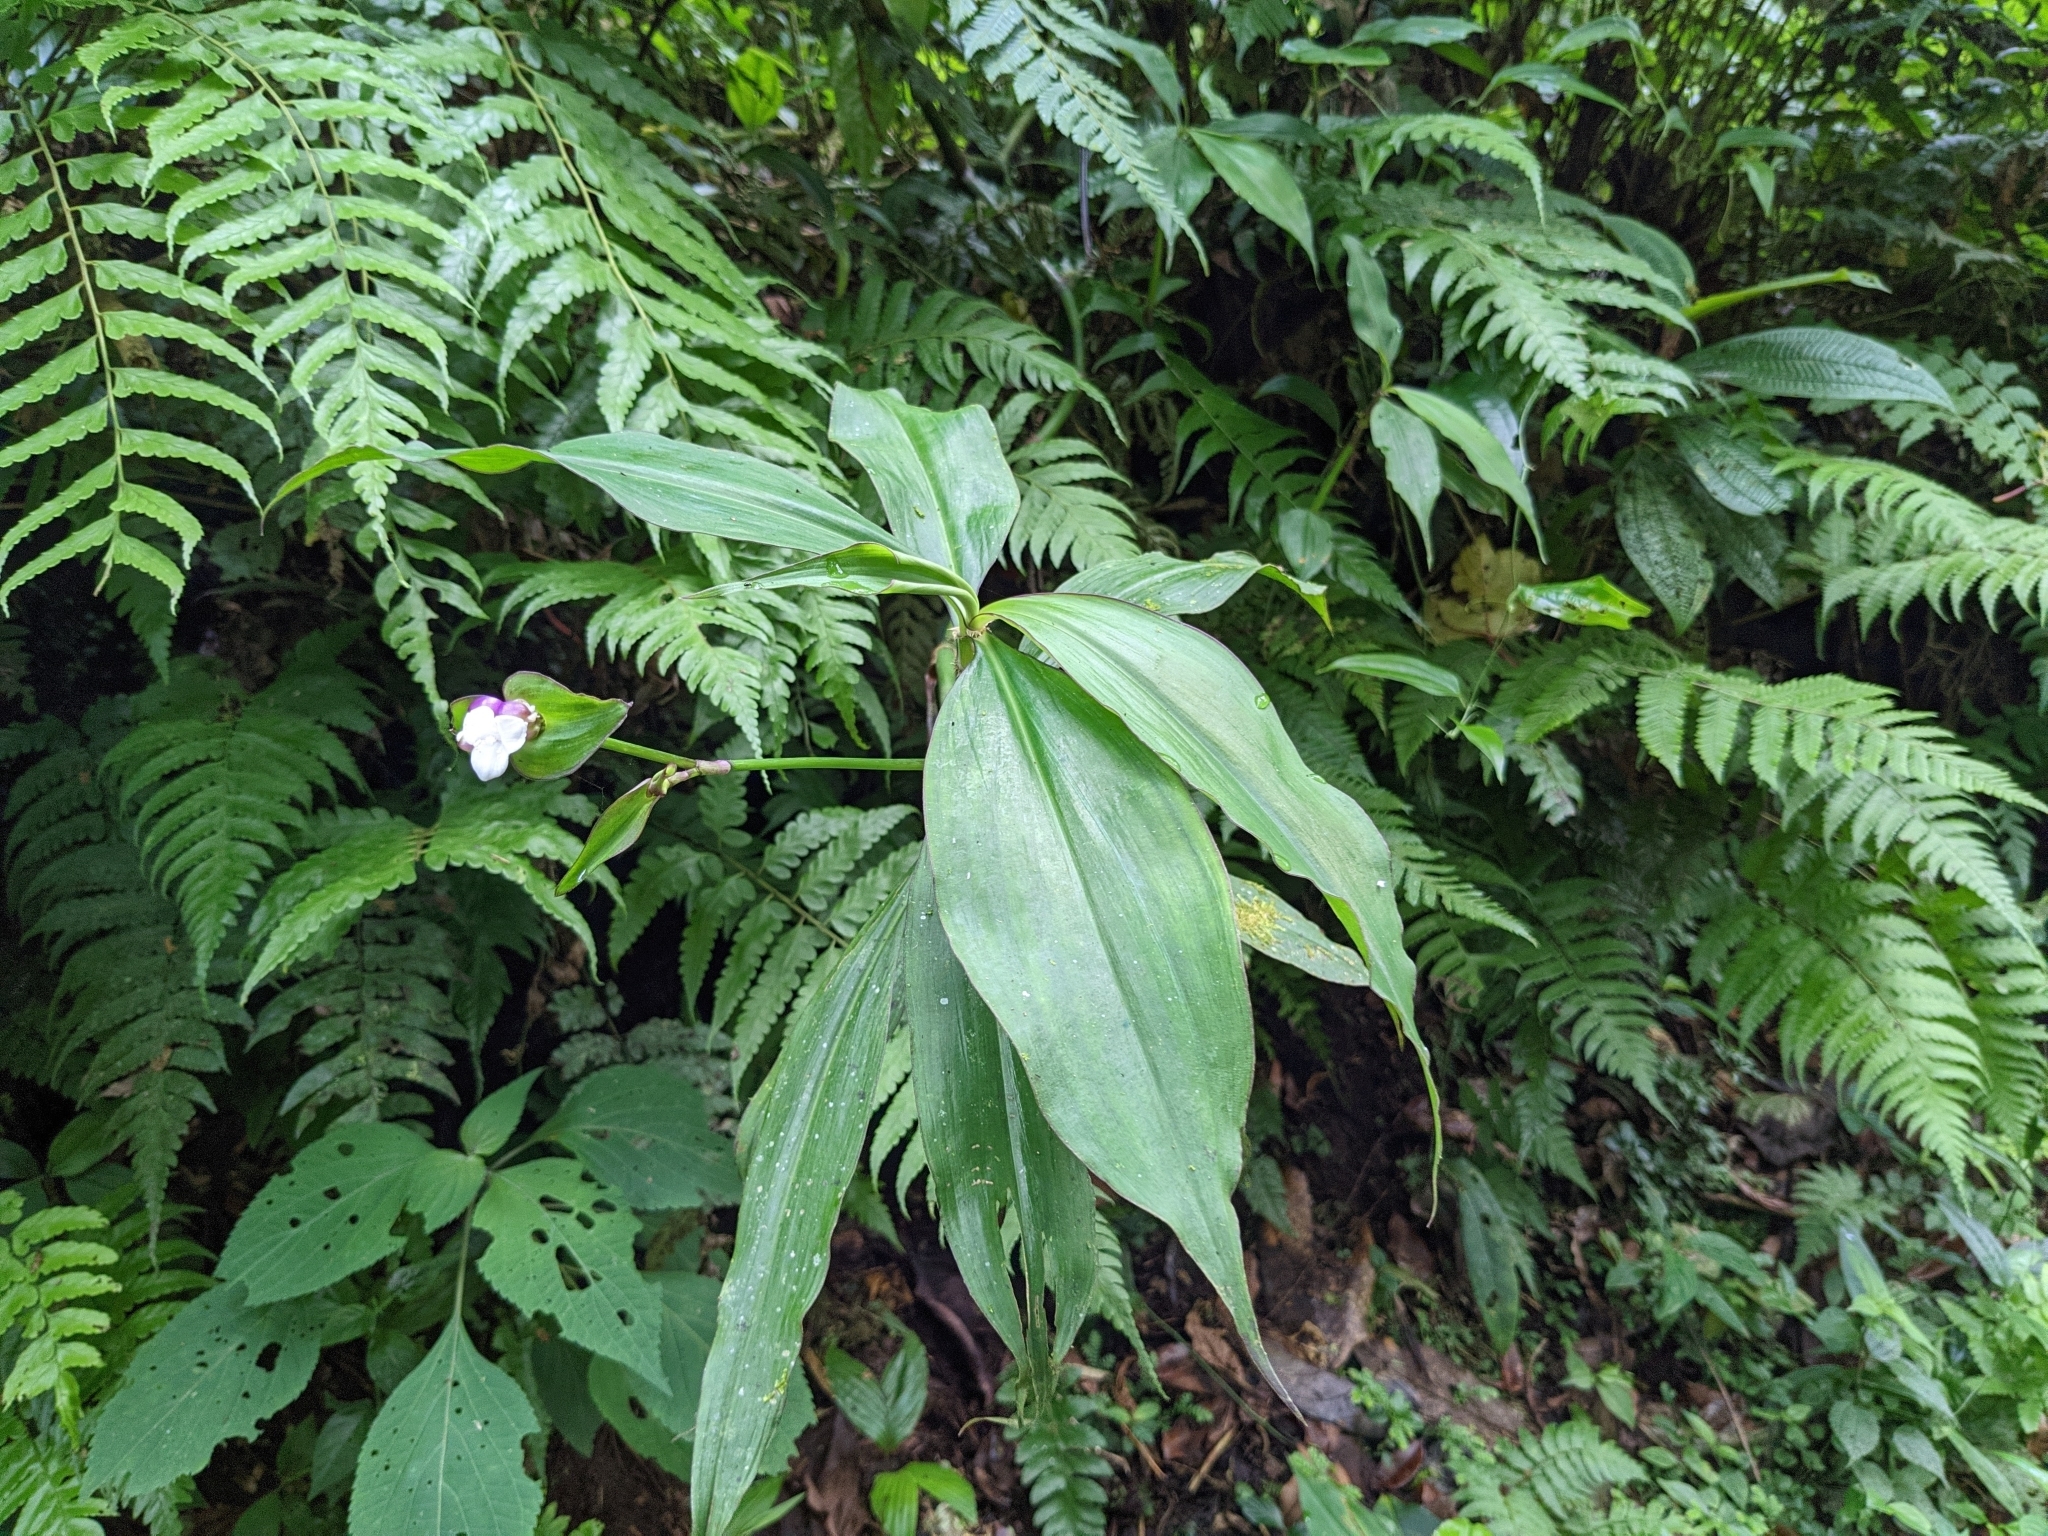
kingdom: Plantae
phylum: Tracheophyta
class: Liliopsida
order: Commelinales
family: Commelinaceae
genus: Tradescantia
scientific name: Tradescantia zanonia
